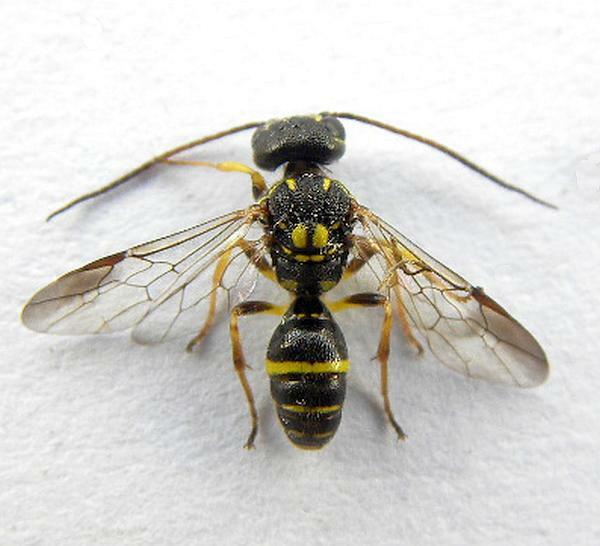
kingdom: Animalia
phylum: Arthropoda
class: Insecta
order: Hymenoptera
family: Trigonalidae
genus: Taeniogonalos
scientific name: Taeniogonalos gundlachii
